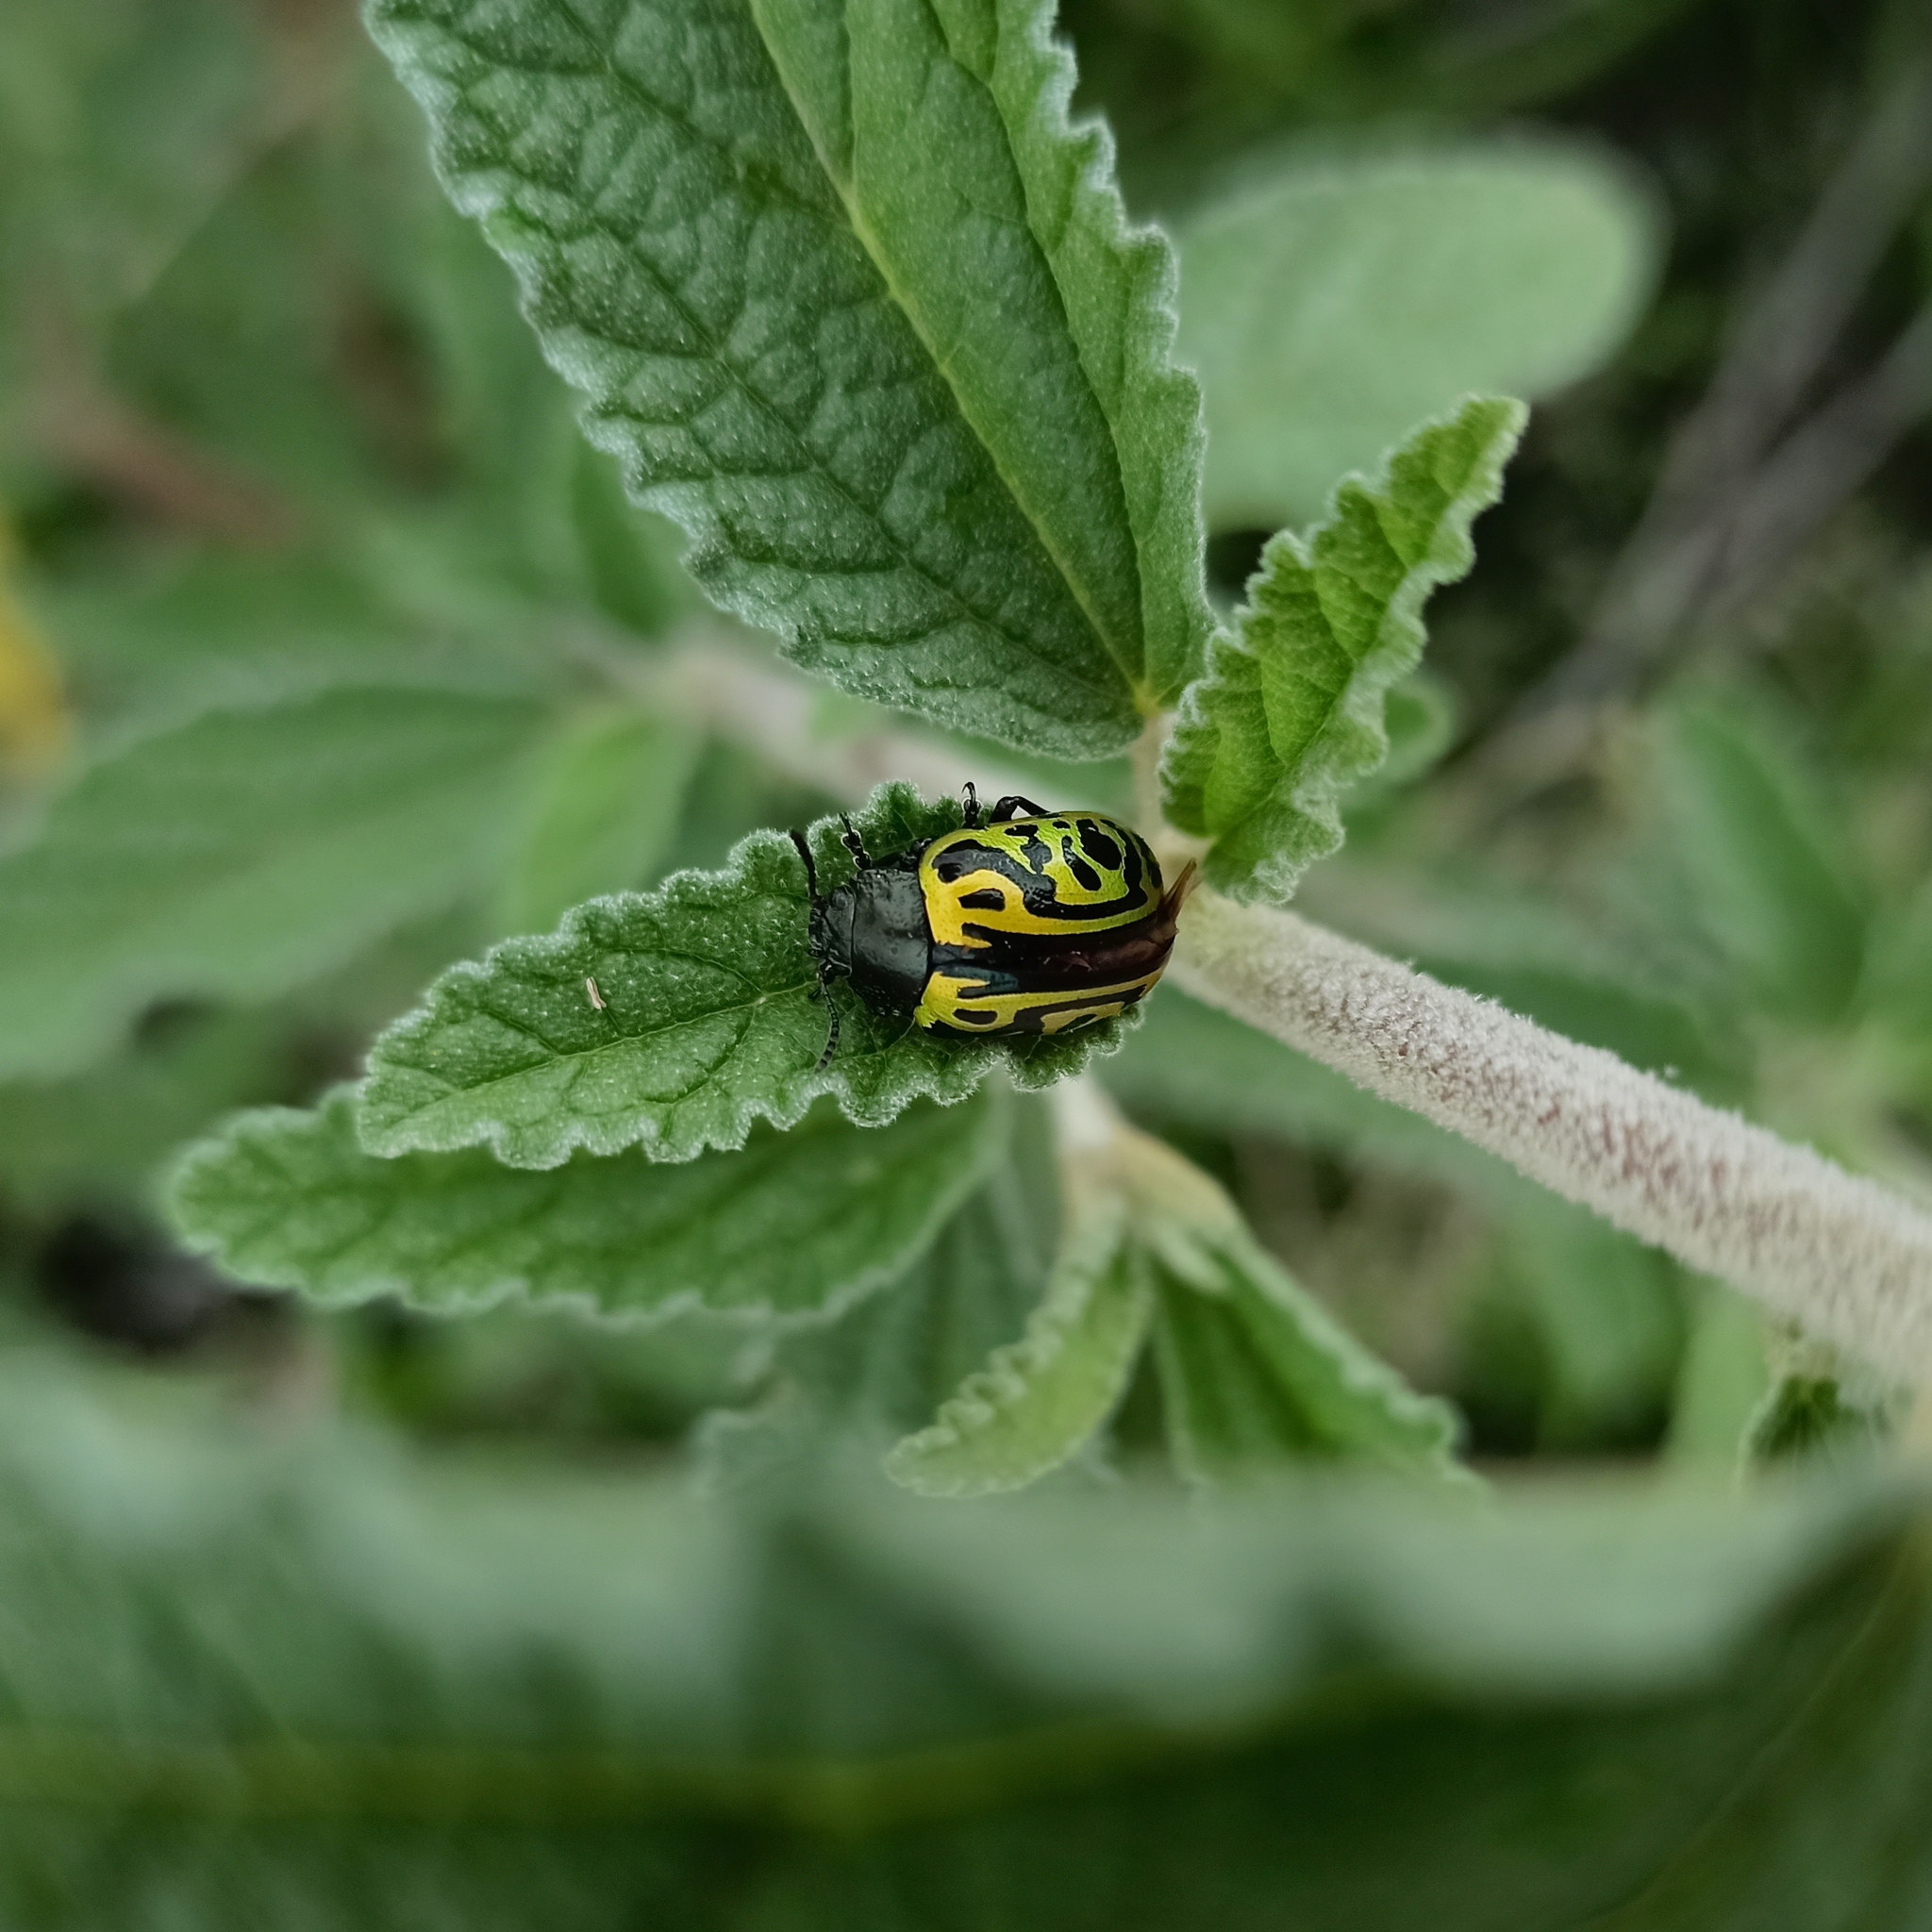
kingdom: Animalia
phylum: Arthropoda
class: Insecta
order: Coleoptera
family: Chrysomelidae
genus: Calligrapha
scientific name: Calligrapha mexicana
